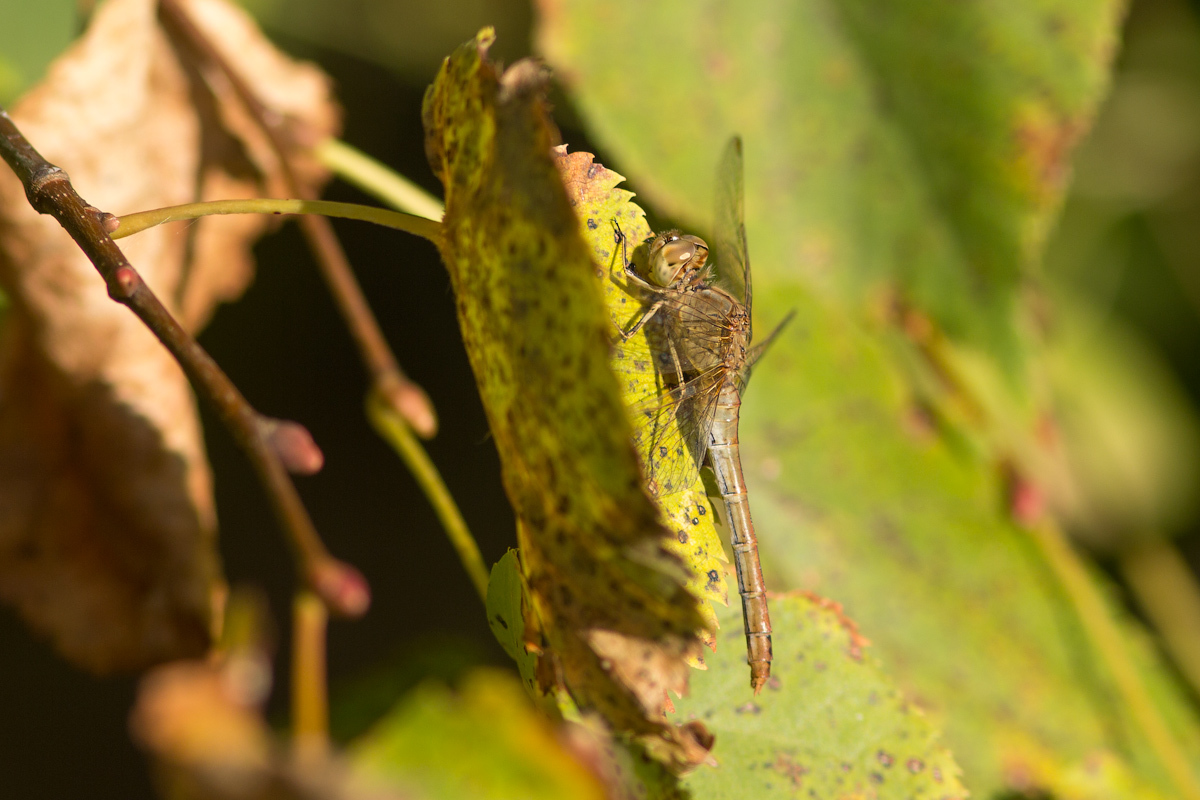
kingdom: Animalia
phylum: Arthropoda
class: Insecta
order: Odonata
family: Libellulidae
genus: Sympetrum
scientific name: Sympetrum meridionale
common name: Southern darter
